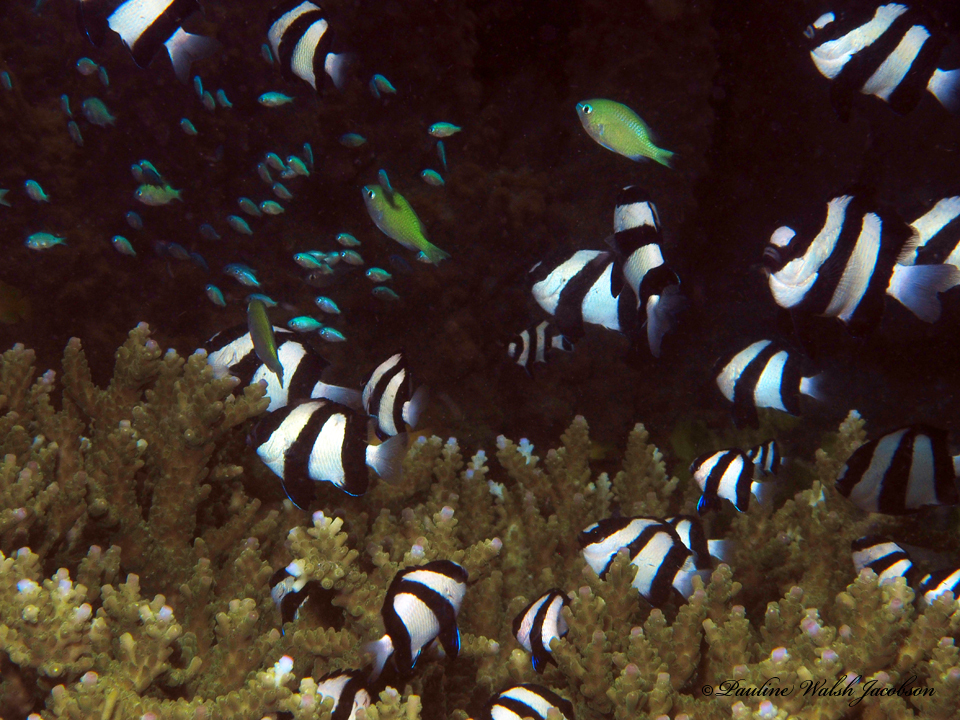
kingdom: Animalia
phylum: Chordata
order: Perciformes
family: Pomacentridae
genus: Dascyllus
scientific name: Dascyllus aruanus
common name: Humbug dascyllus
